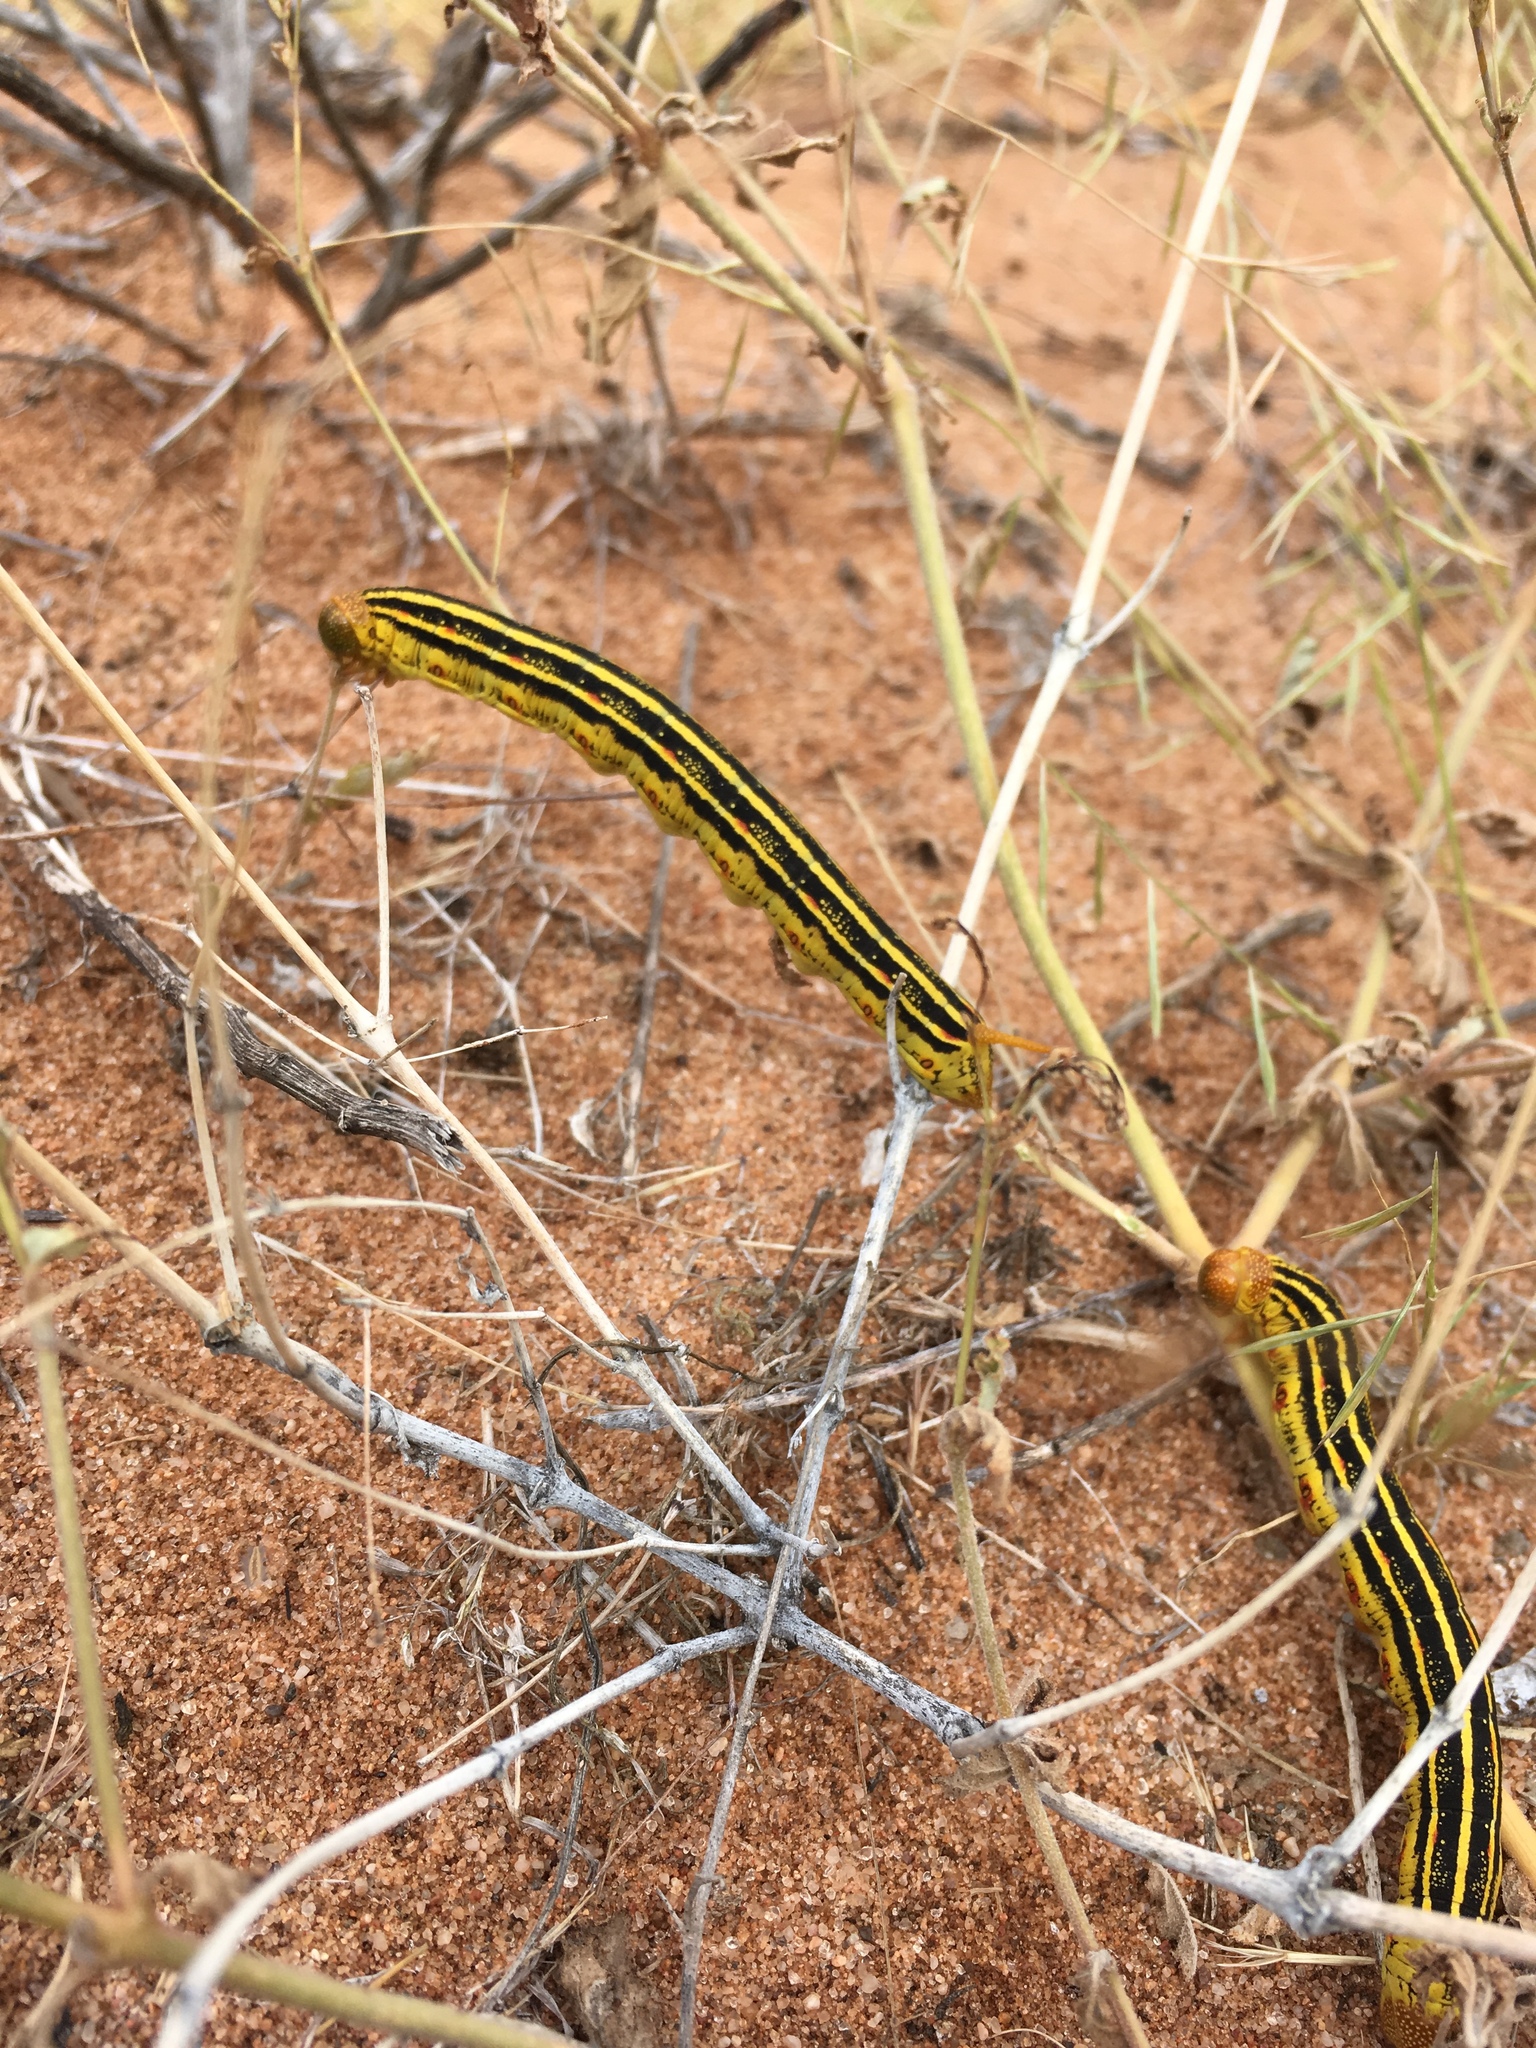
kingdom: Animalia
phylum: Arthropoda
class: Insecta
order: Lepidoptera
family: Sphingidae
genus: Hyles
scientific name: Hyles lineata
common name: White-lined sphinx
